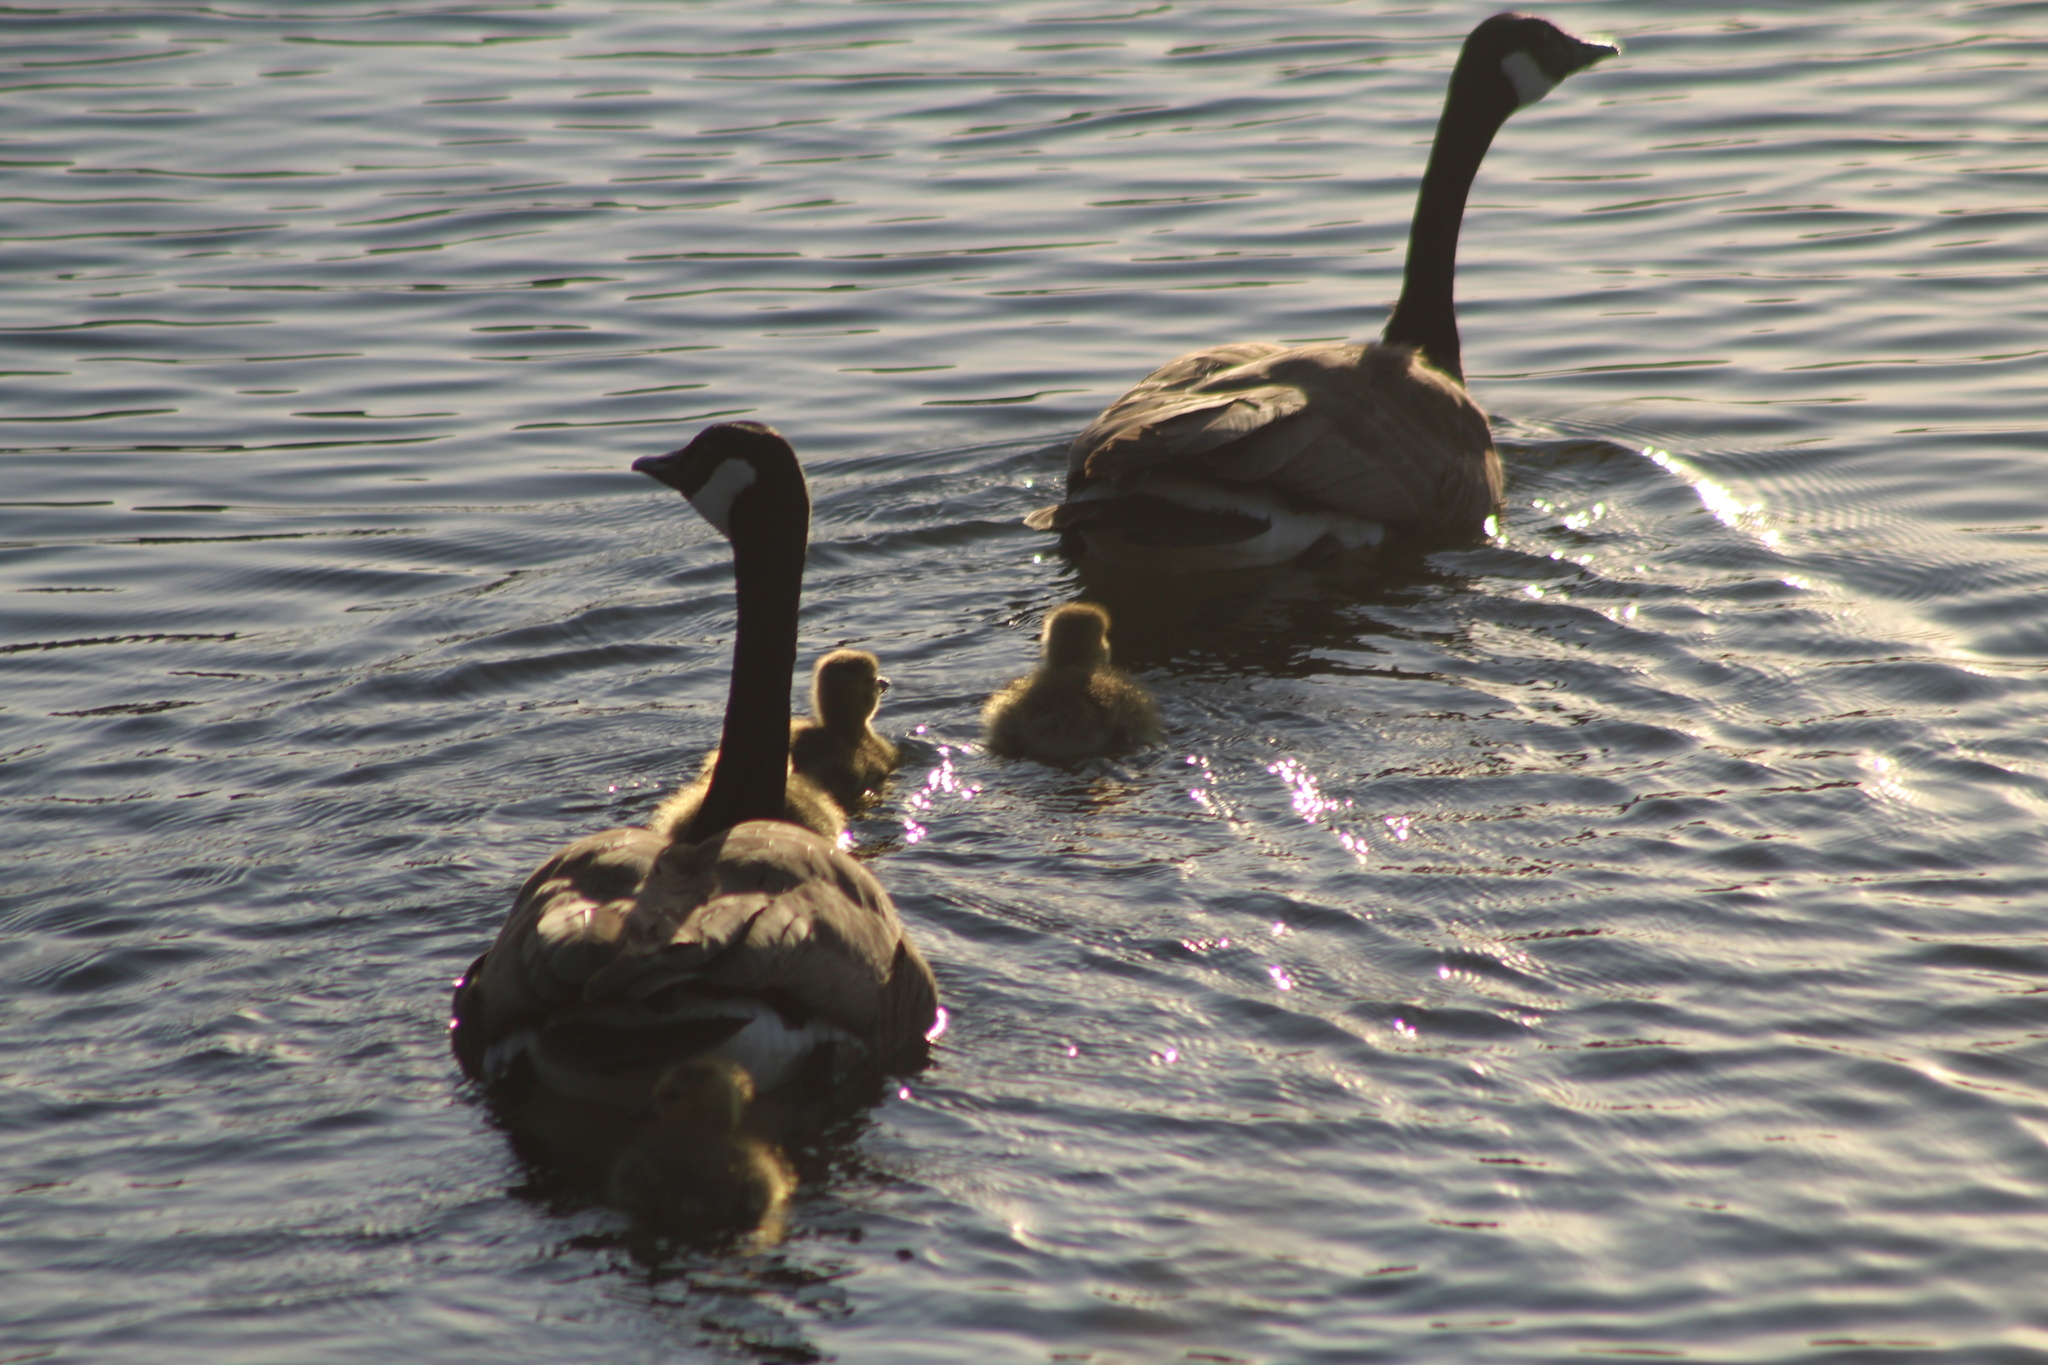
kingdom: Animalia
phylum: Chordata
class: Aves
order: Anseriformes
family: Anatidae
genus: Branta
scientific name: Branta canadensis
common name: Canada goose
